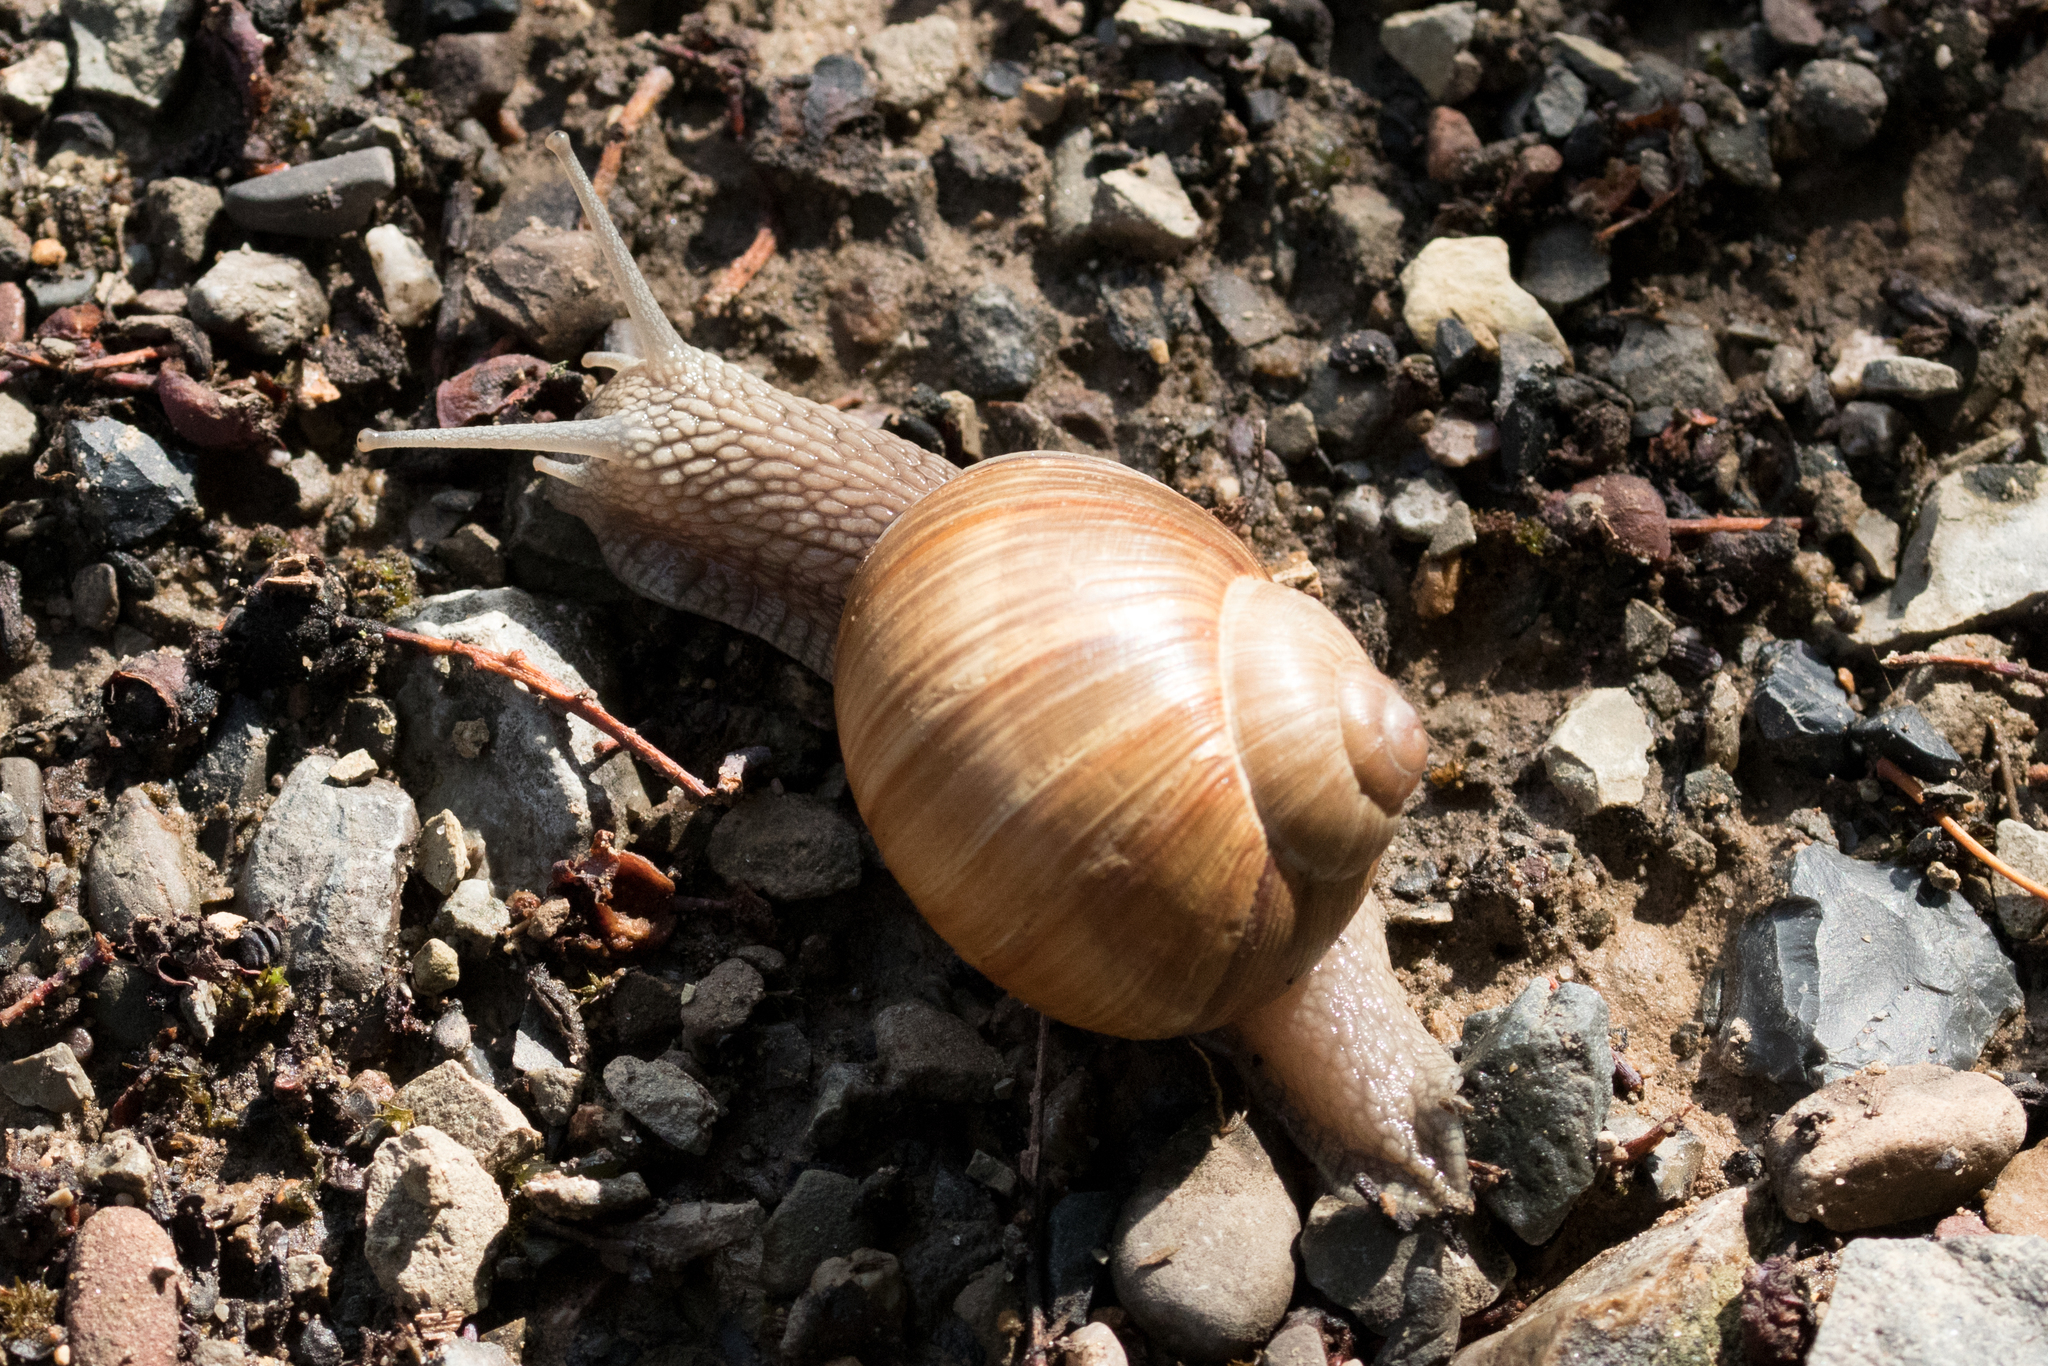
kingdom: Animalia
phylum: Mollusca
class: Gastropoda
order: Stylommatophora
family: Helicidae
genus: Helix
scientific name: Helix pomatia
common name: Roman snail
